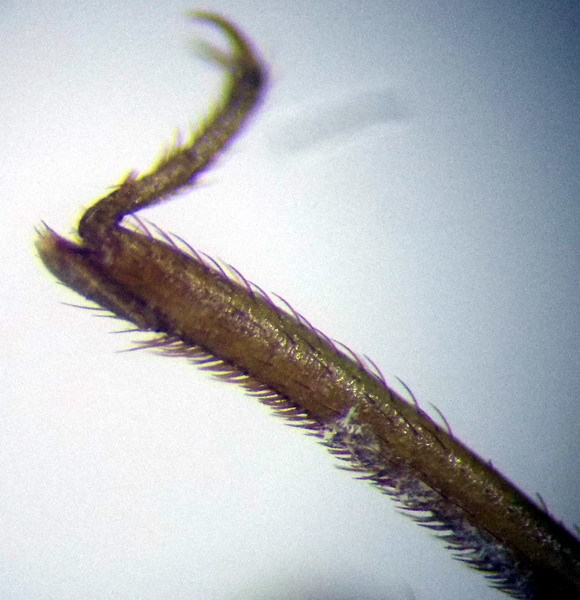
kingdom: Animalia
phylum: Arthropoda
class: Insecta
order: Hemiptera
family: Reduviidae
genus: Reduvius
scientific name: Reduvius testaceus
